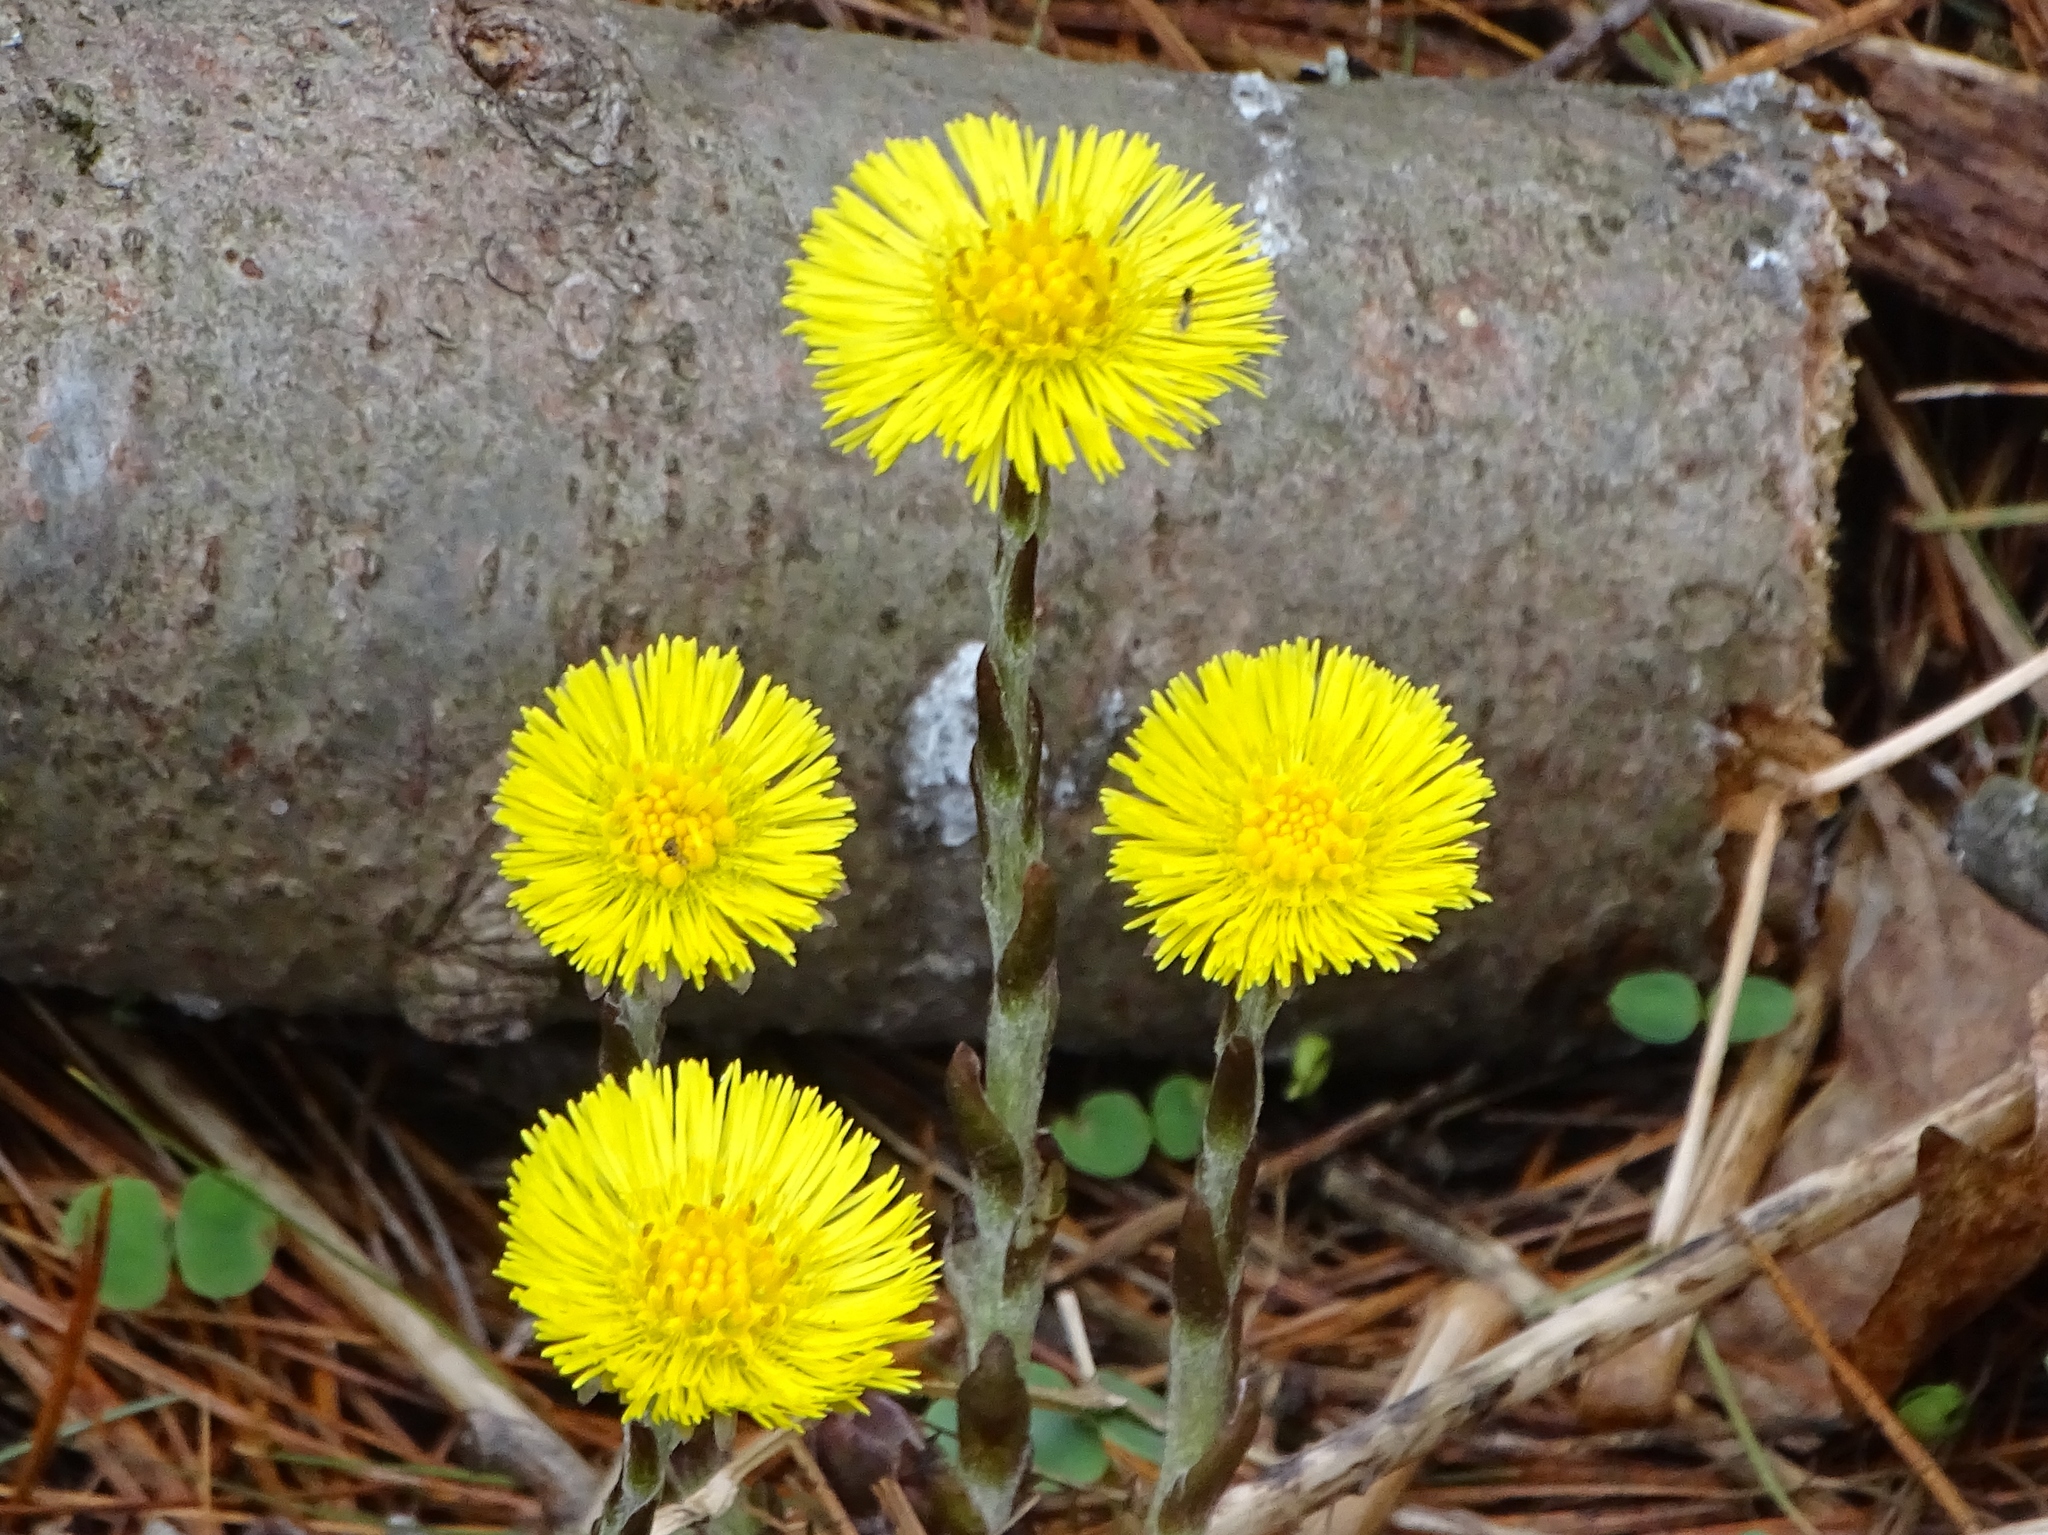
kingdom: Plantae
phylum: Tracheophyta
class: Magnoliopsida
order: Asterales
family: Asteraceae
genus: Tussilago
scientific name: Tussilago farfara
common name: Coltsfoot
